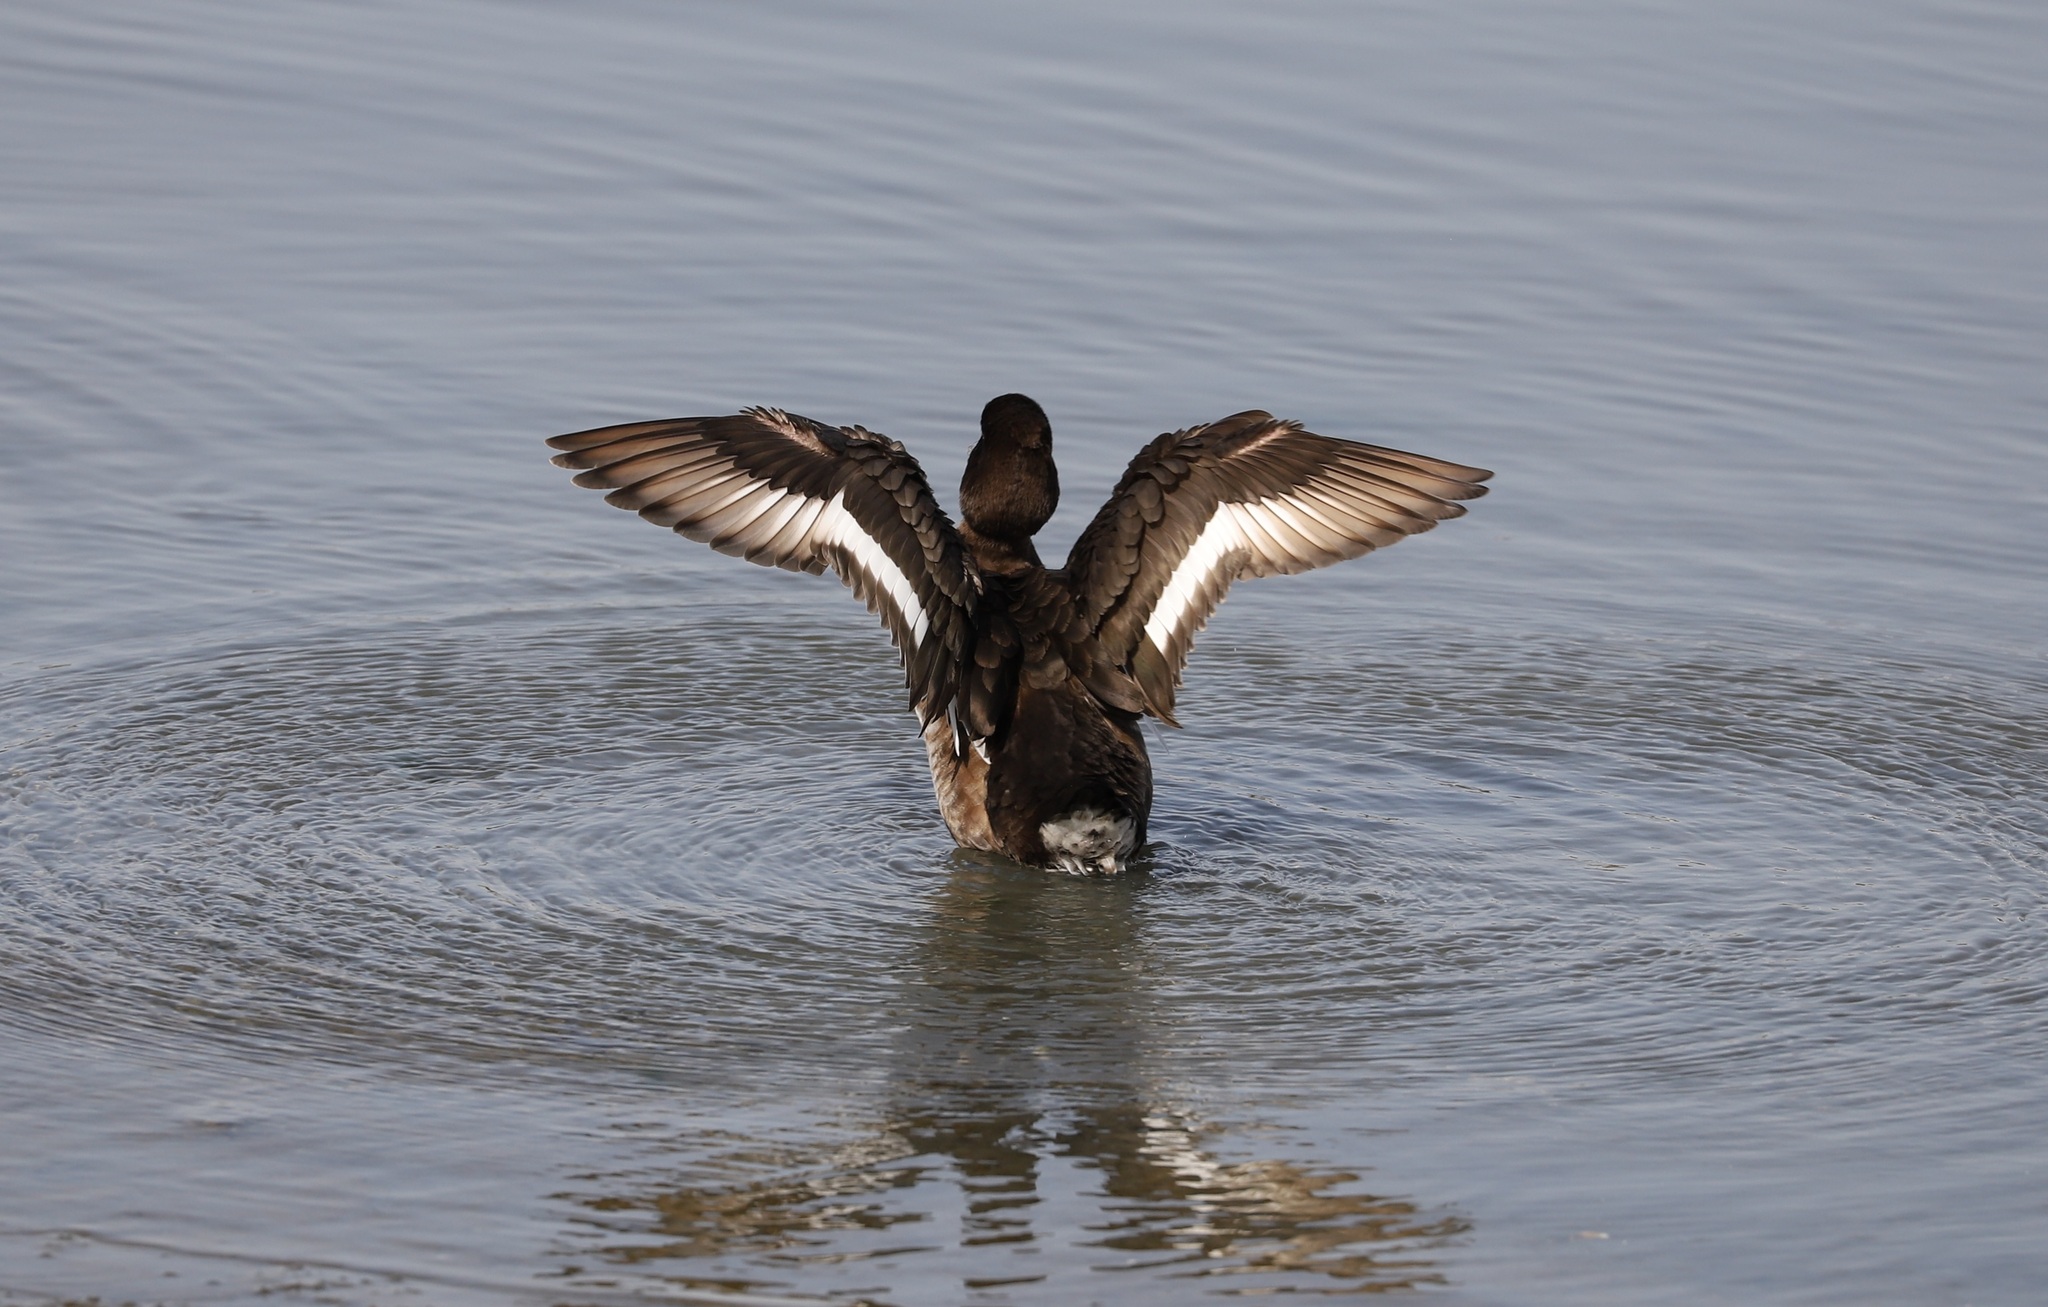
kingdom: Animalia
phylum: Chordata
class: Aves
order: Anseriformes
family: Anatidae
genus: Aythya
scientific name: Aythya fuligula
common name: Tufted duck
